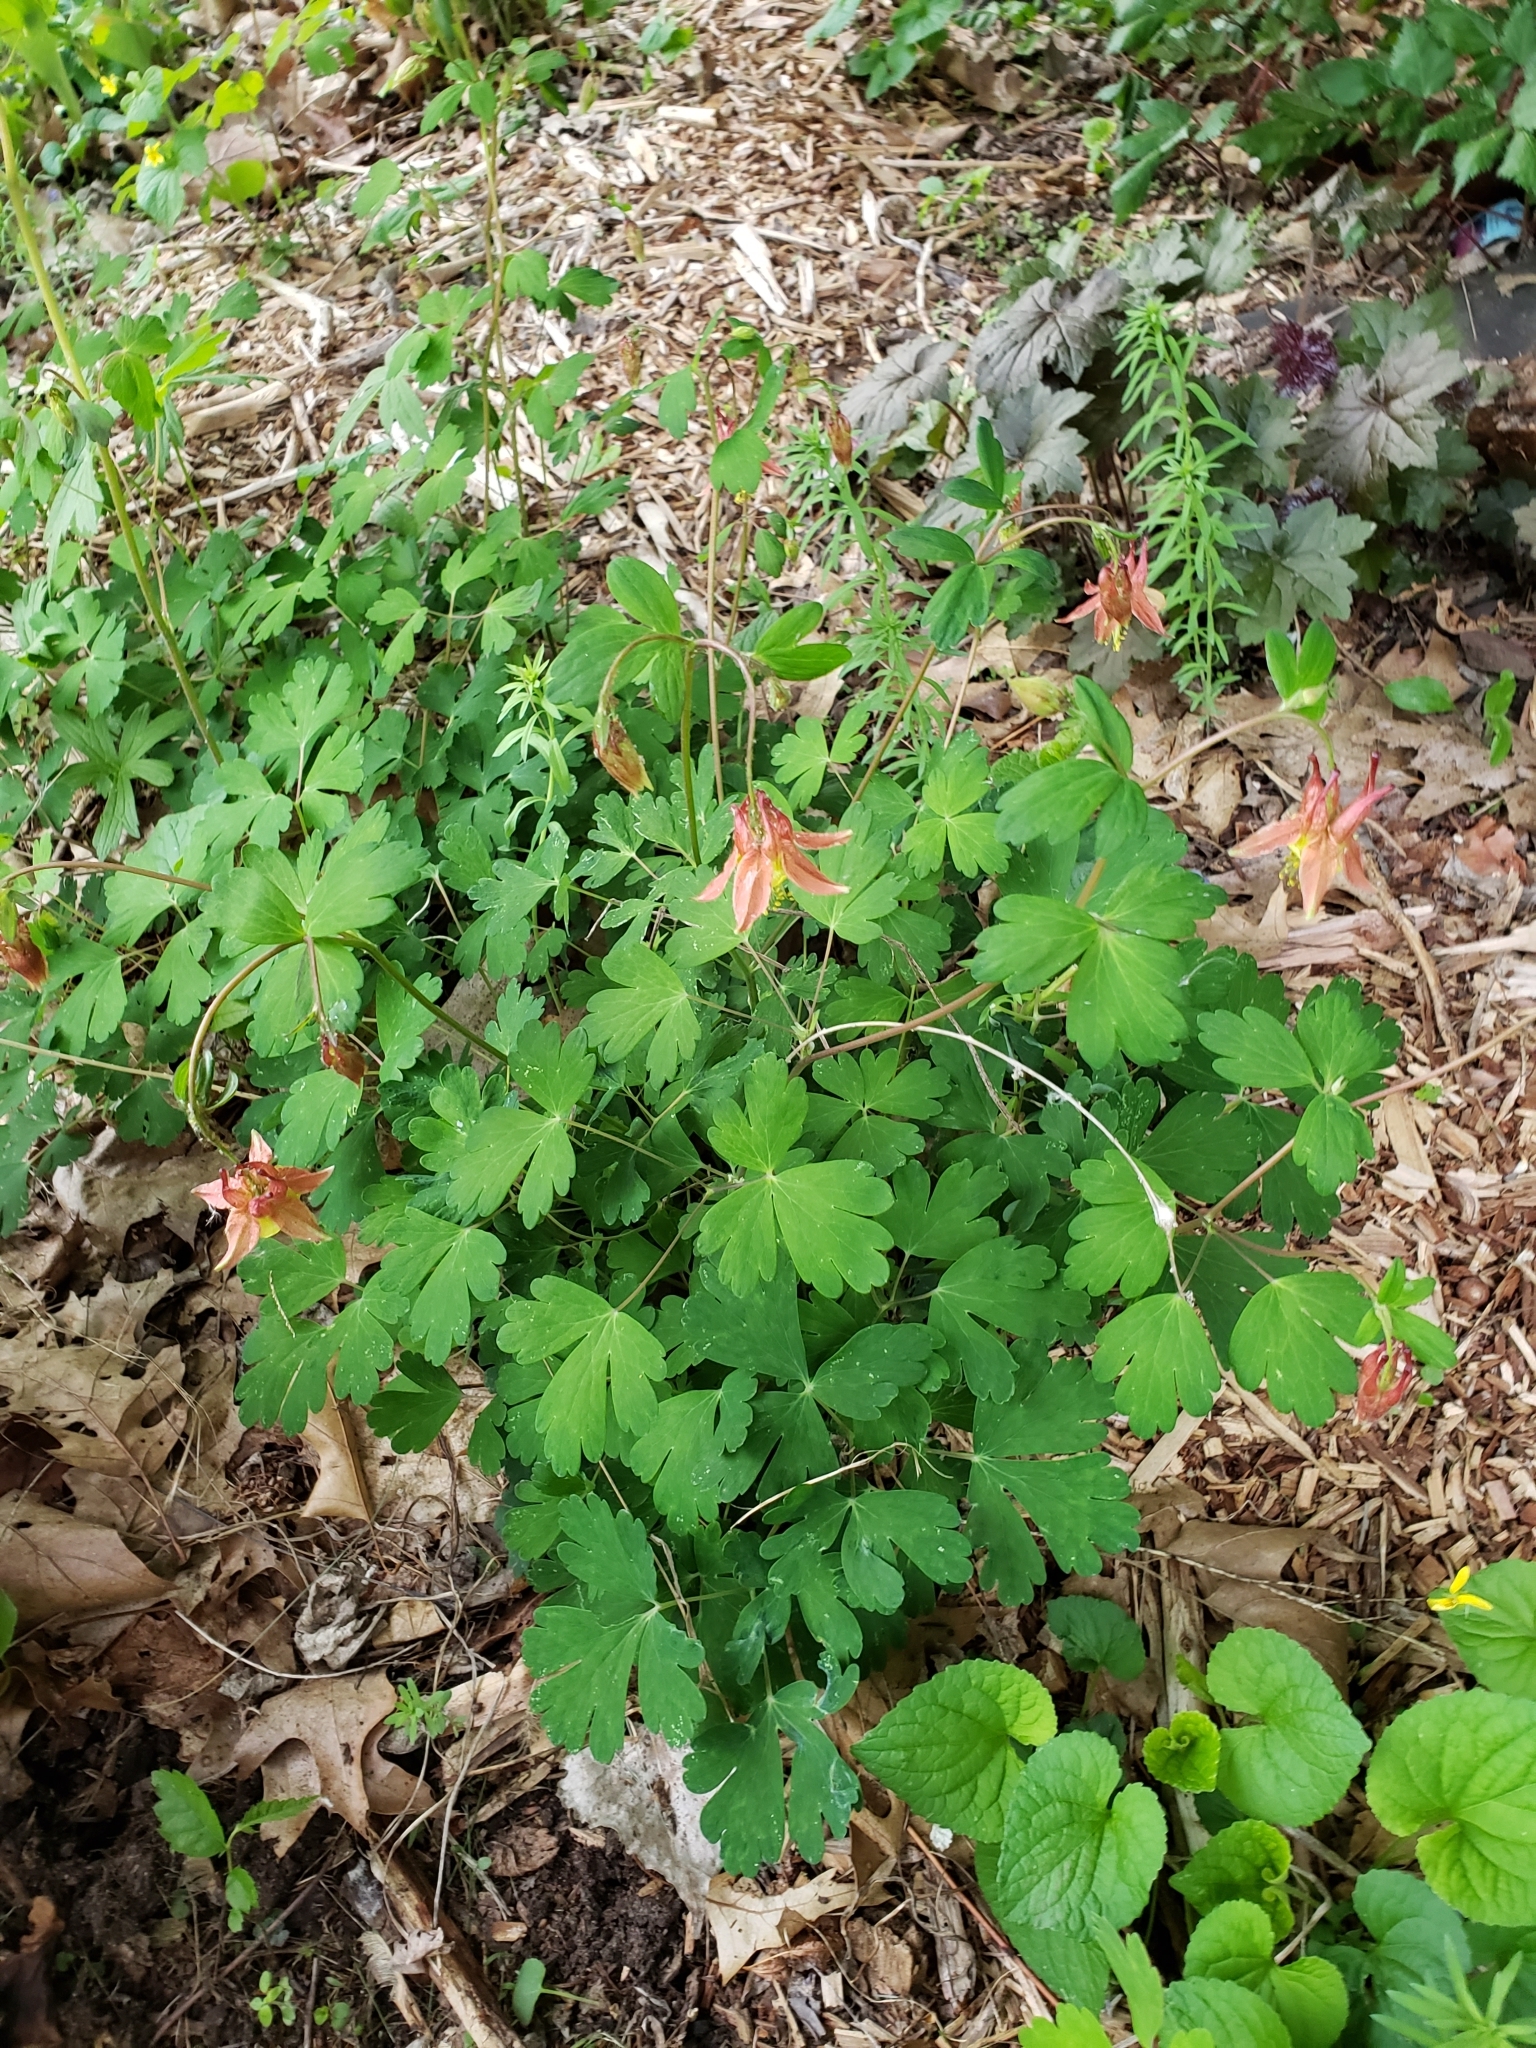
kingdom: Plantae
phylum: Tracheophyta
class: Magnoliopsida
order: Ranunculales
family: Ranunculaceae
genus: Aquilegia
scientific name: Aquilegia canadensis
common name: American columbine
